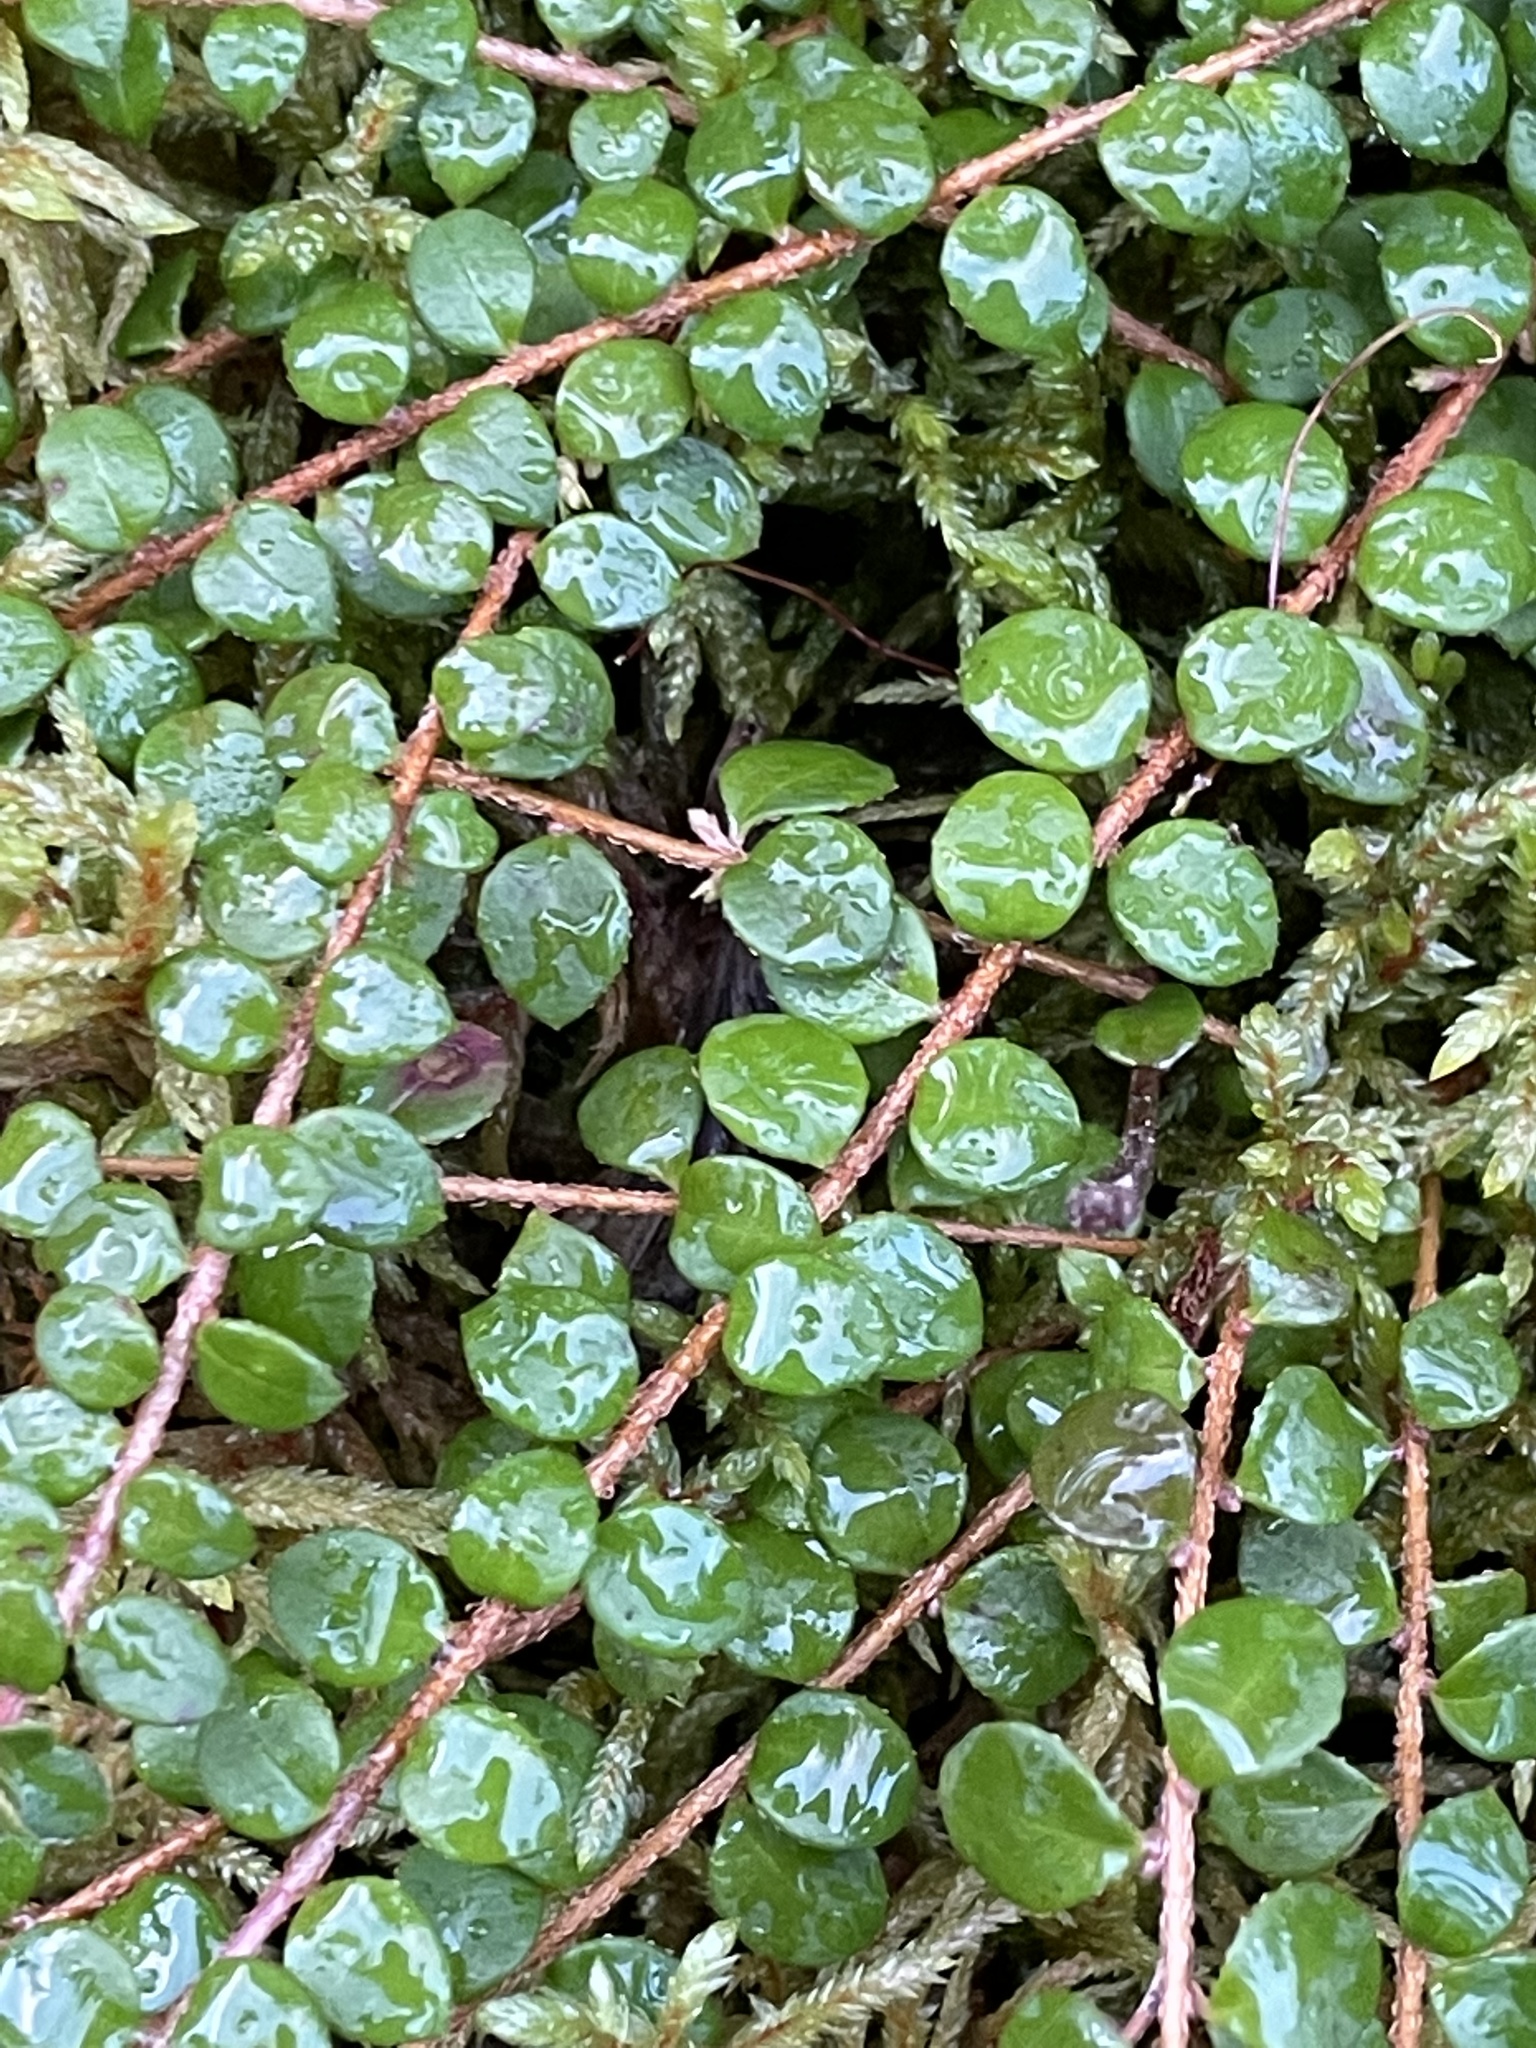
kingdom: Plantae
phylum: Tracheophyta
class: Magnoliopsida
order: Ericales
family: Ericaceae
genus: Gaultheria
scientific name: Gaultheria hispidula
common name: Cancer wintergreen
